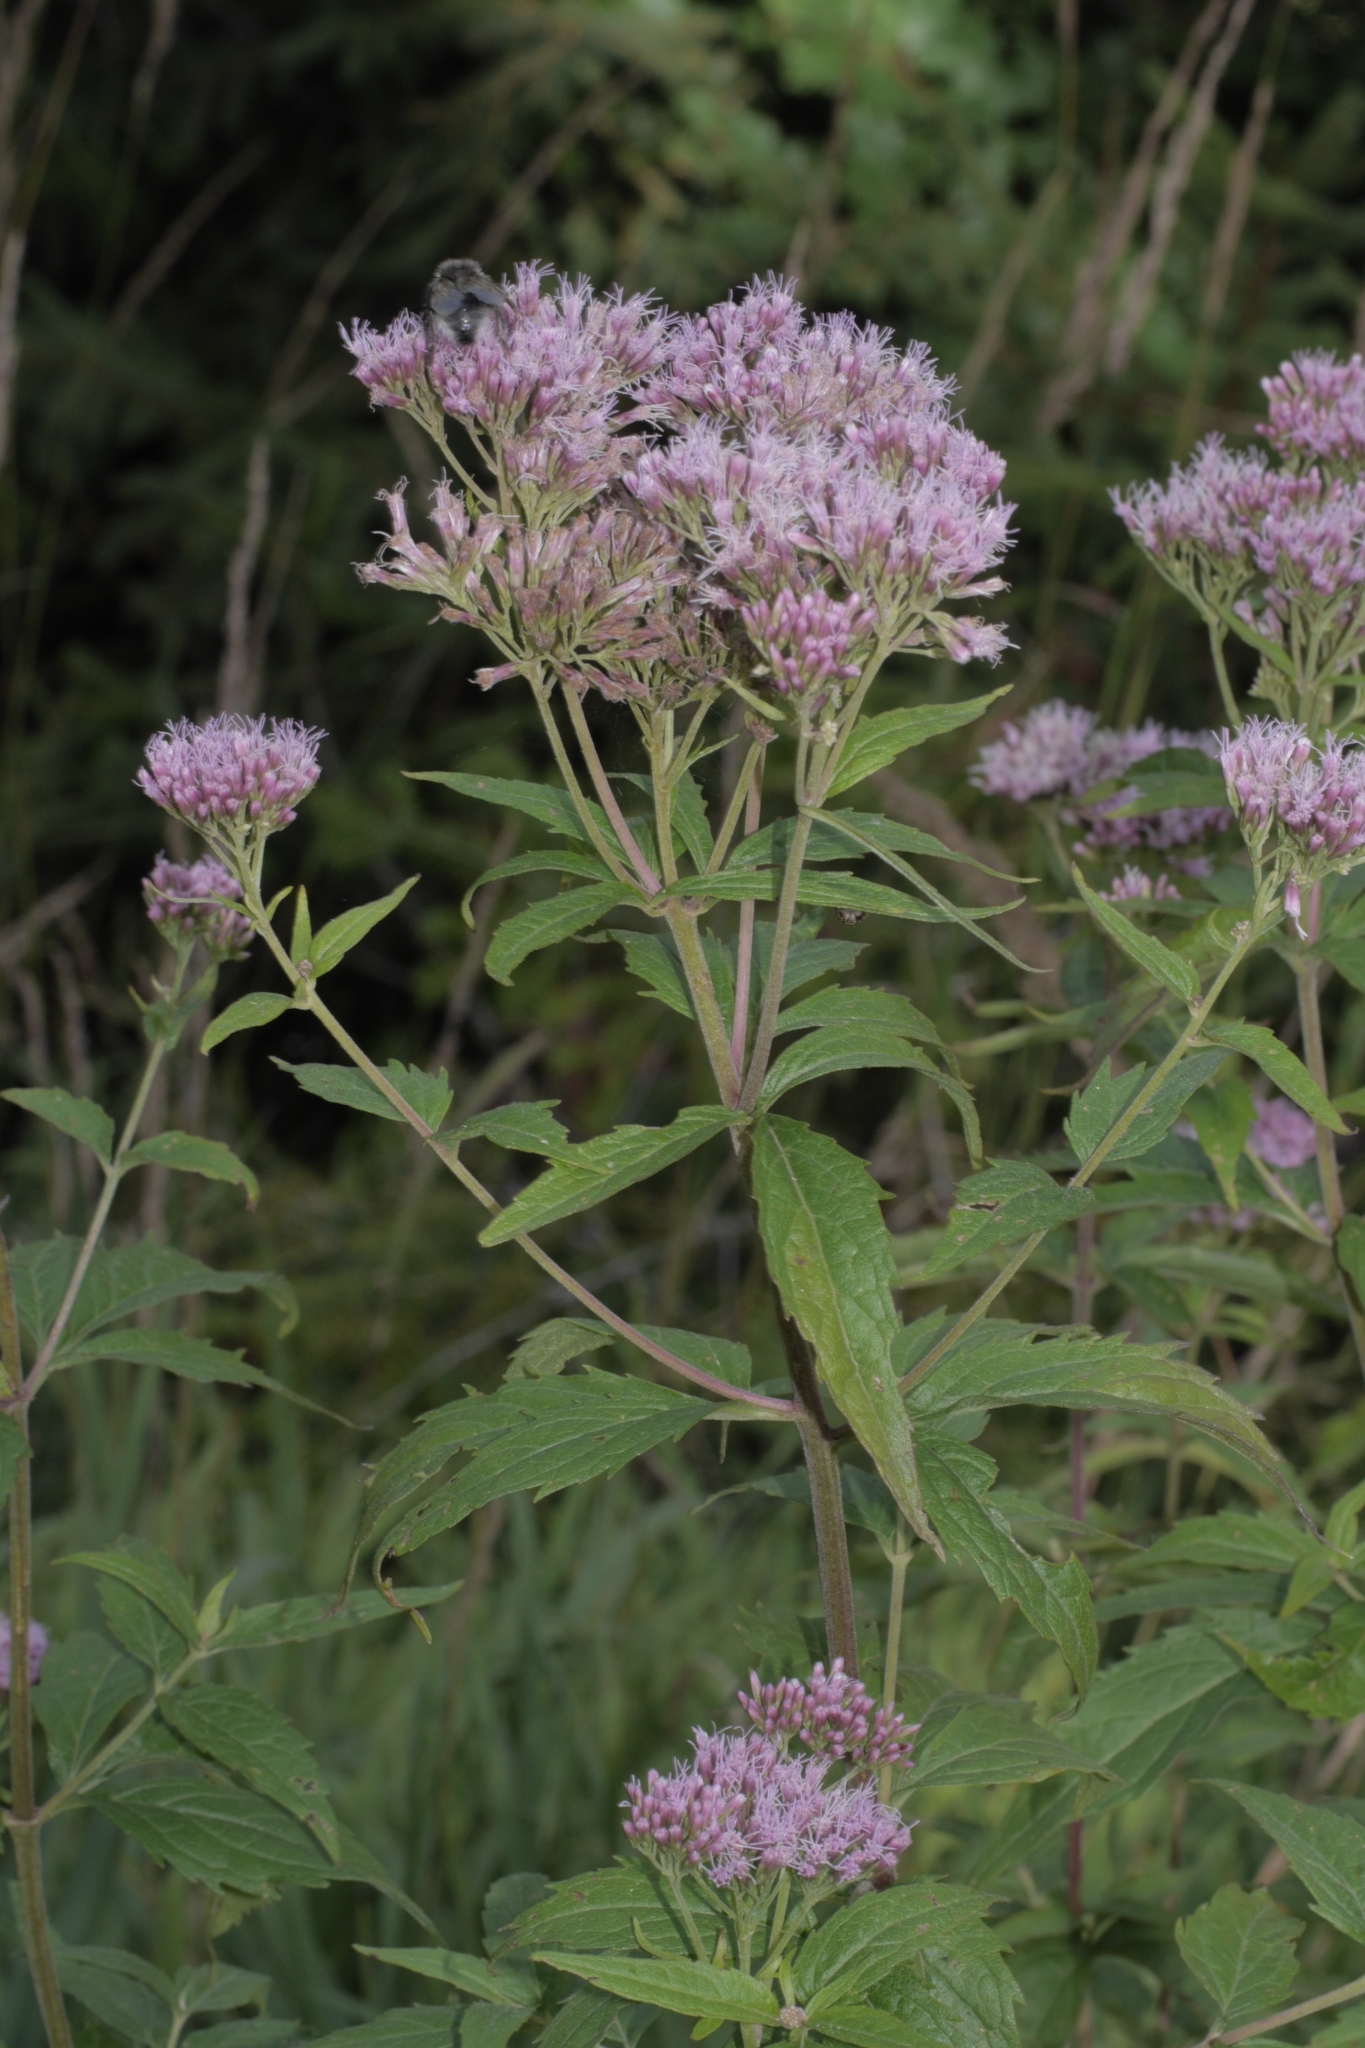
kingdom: Plantae
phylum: Tracheophyta
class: Magnoliopsida
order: Asterales
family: Asteraceae
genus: Eupatorium
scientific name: Eupatorium cannabinum
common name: Hemp-agrimony
